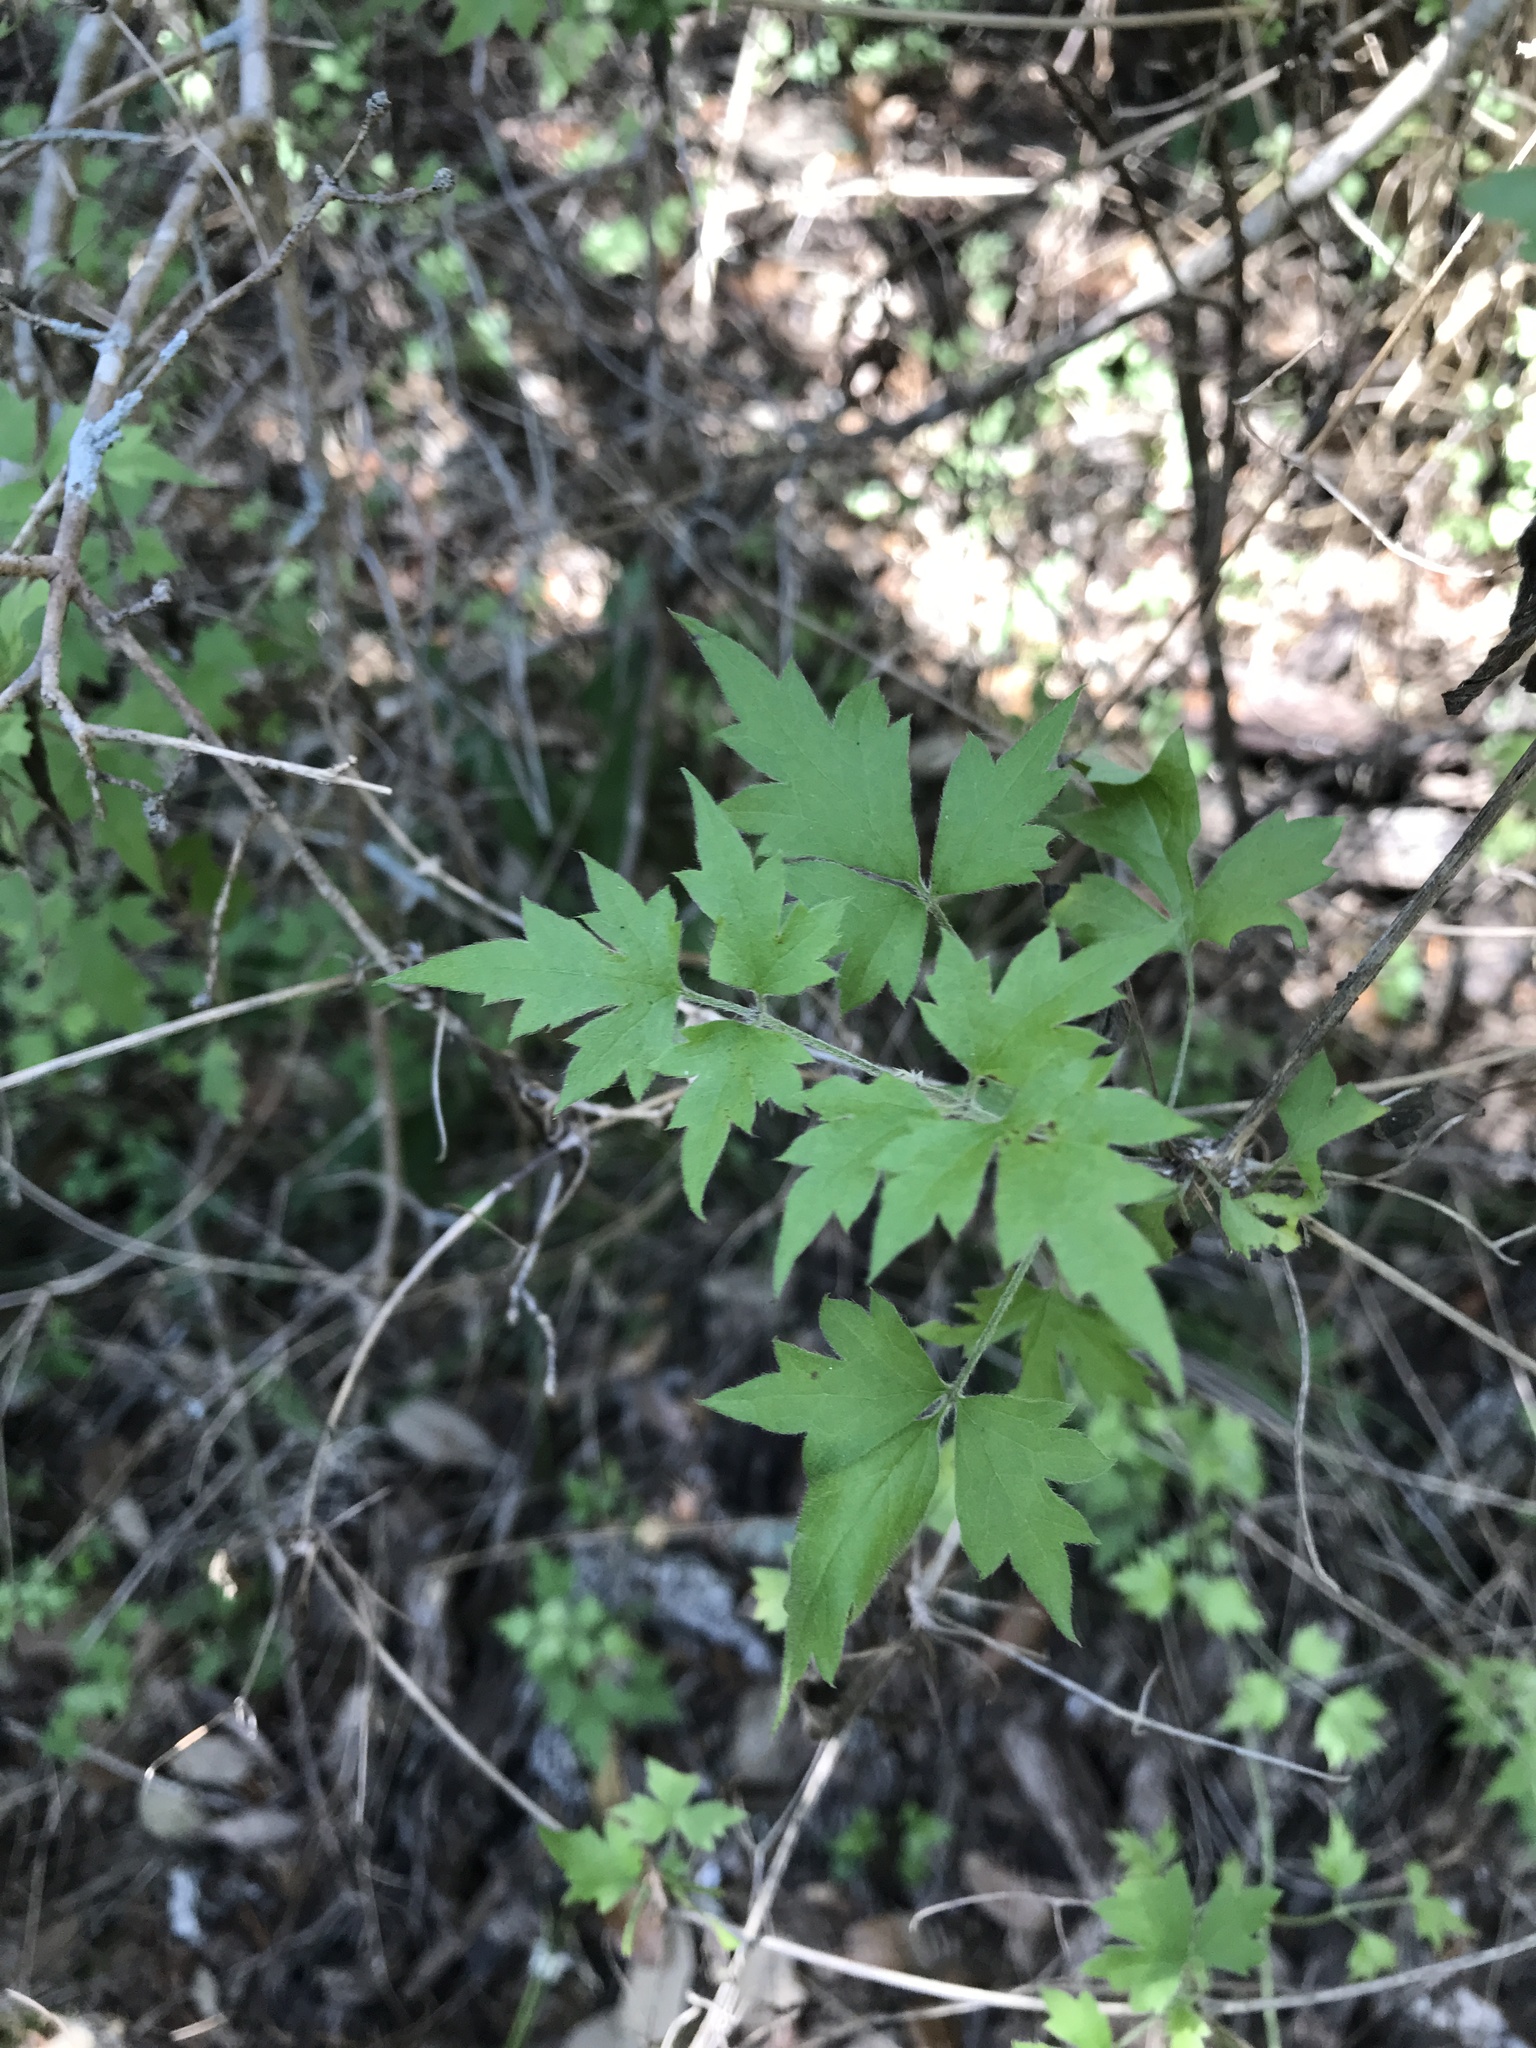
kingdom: Plantae
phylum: Tracheophyta
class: Magnoliopsida
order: Ranunculales
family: Ranunculaceae
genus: Clematis
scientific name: Clematis drummondii
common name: Texas virgin's bower
